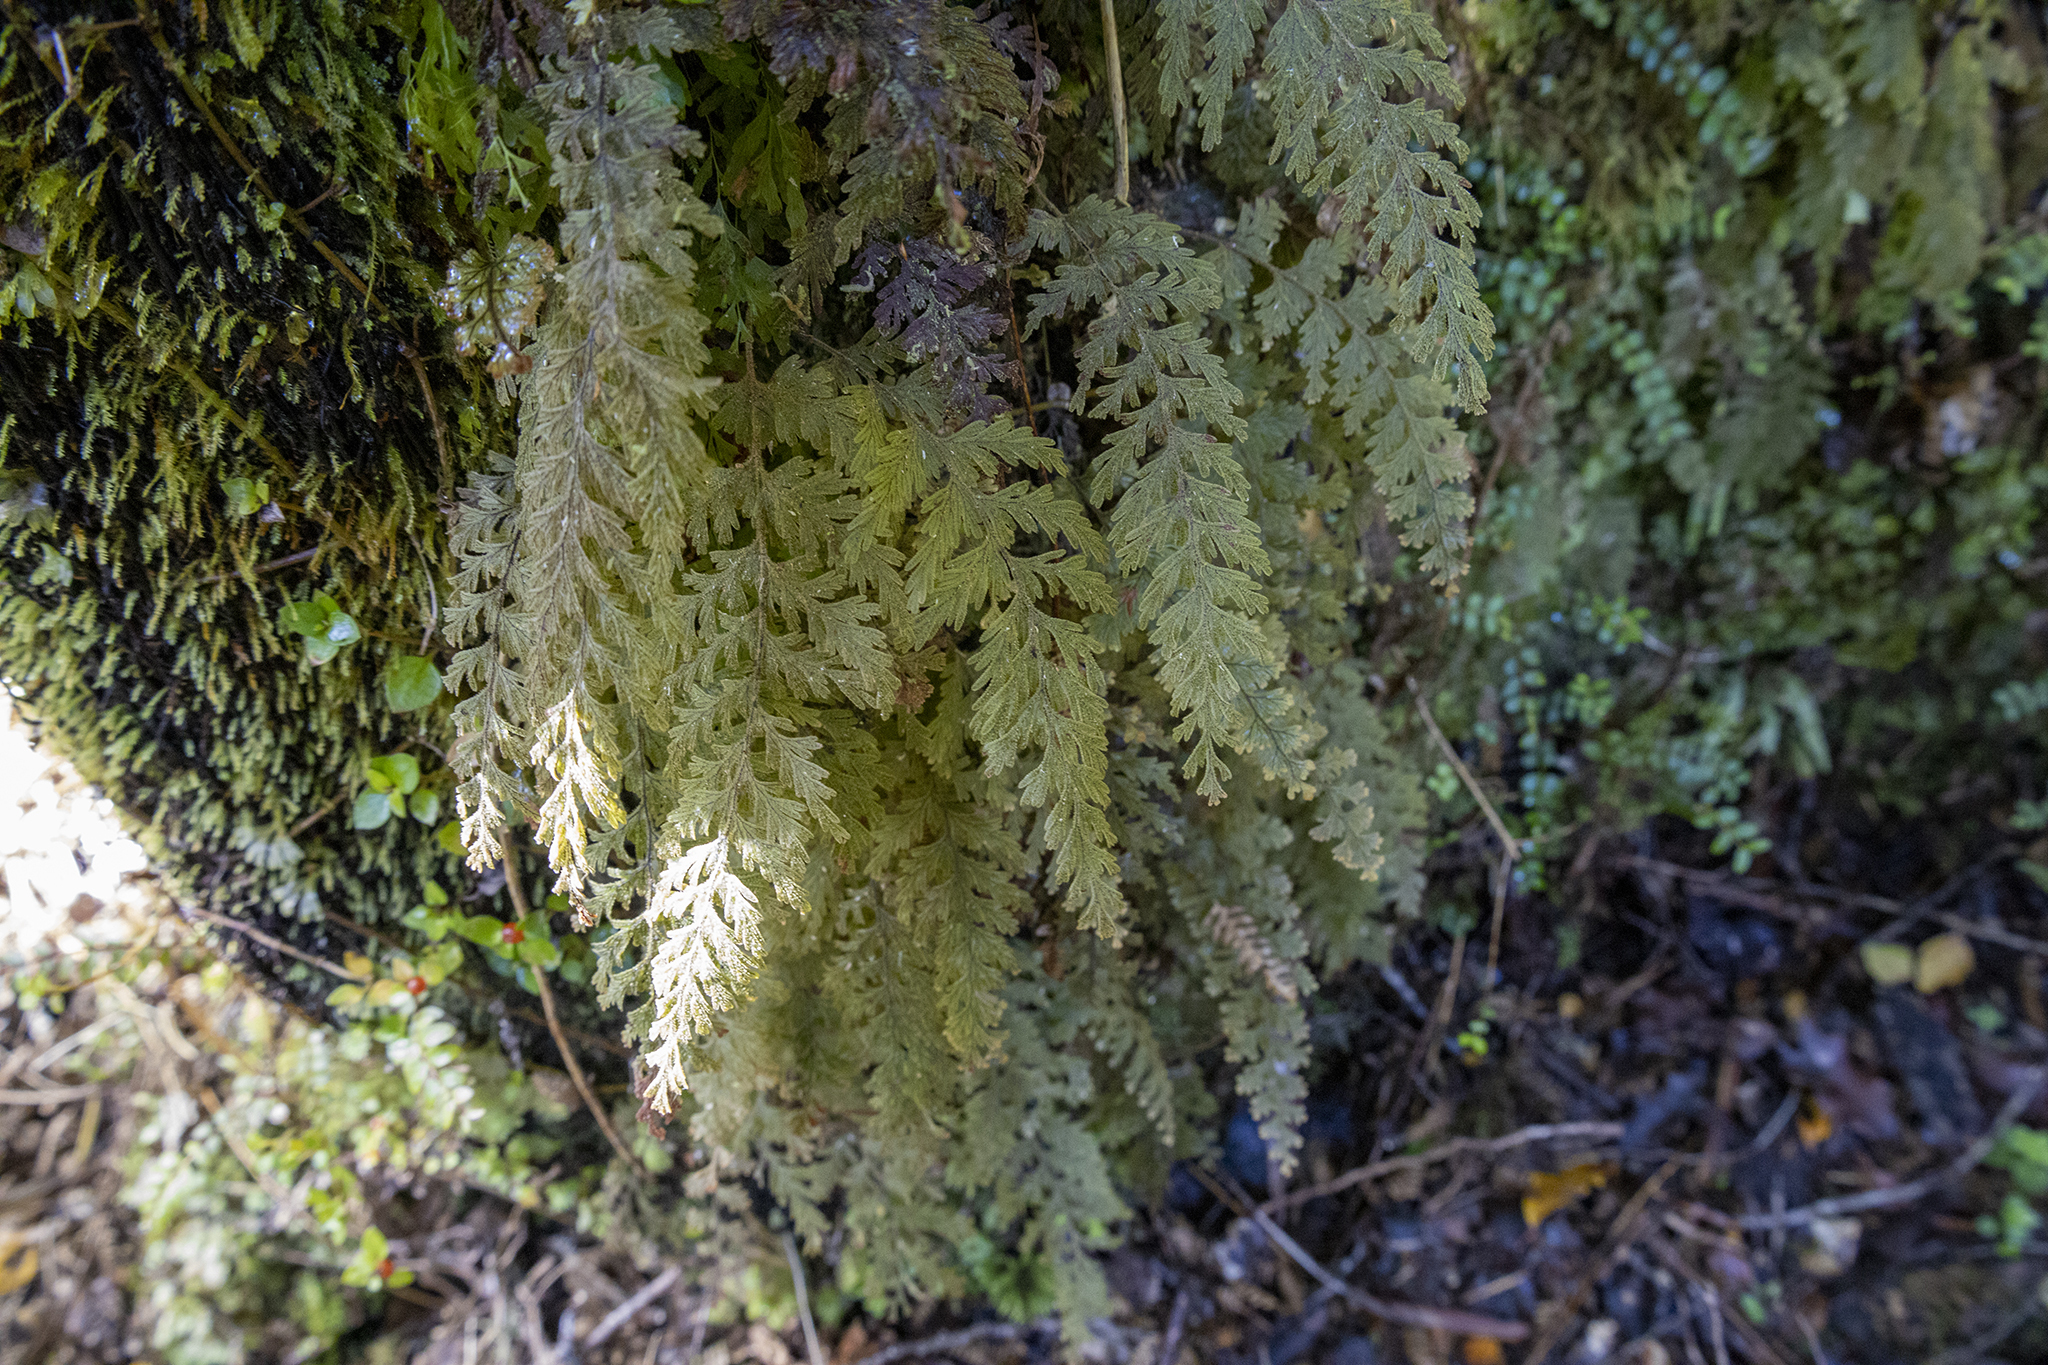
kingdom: Plantae
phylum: Tracheophyta
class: Polypodiopsida
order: Hymenophyllales
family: Hymenophyllaceae
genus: Hymenophyllum
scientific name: Hymenophyllum frankliniae
